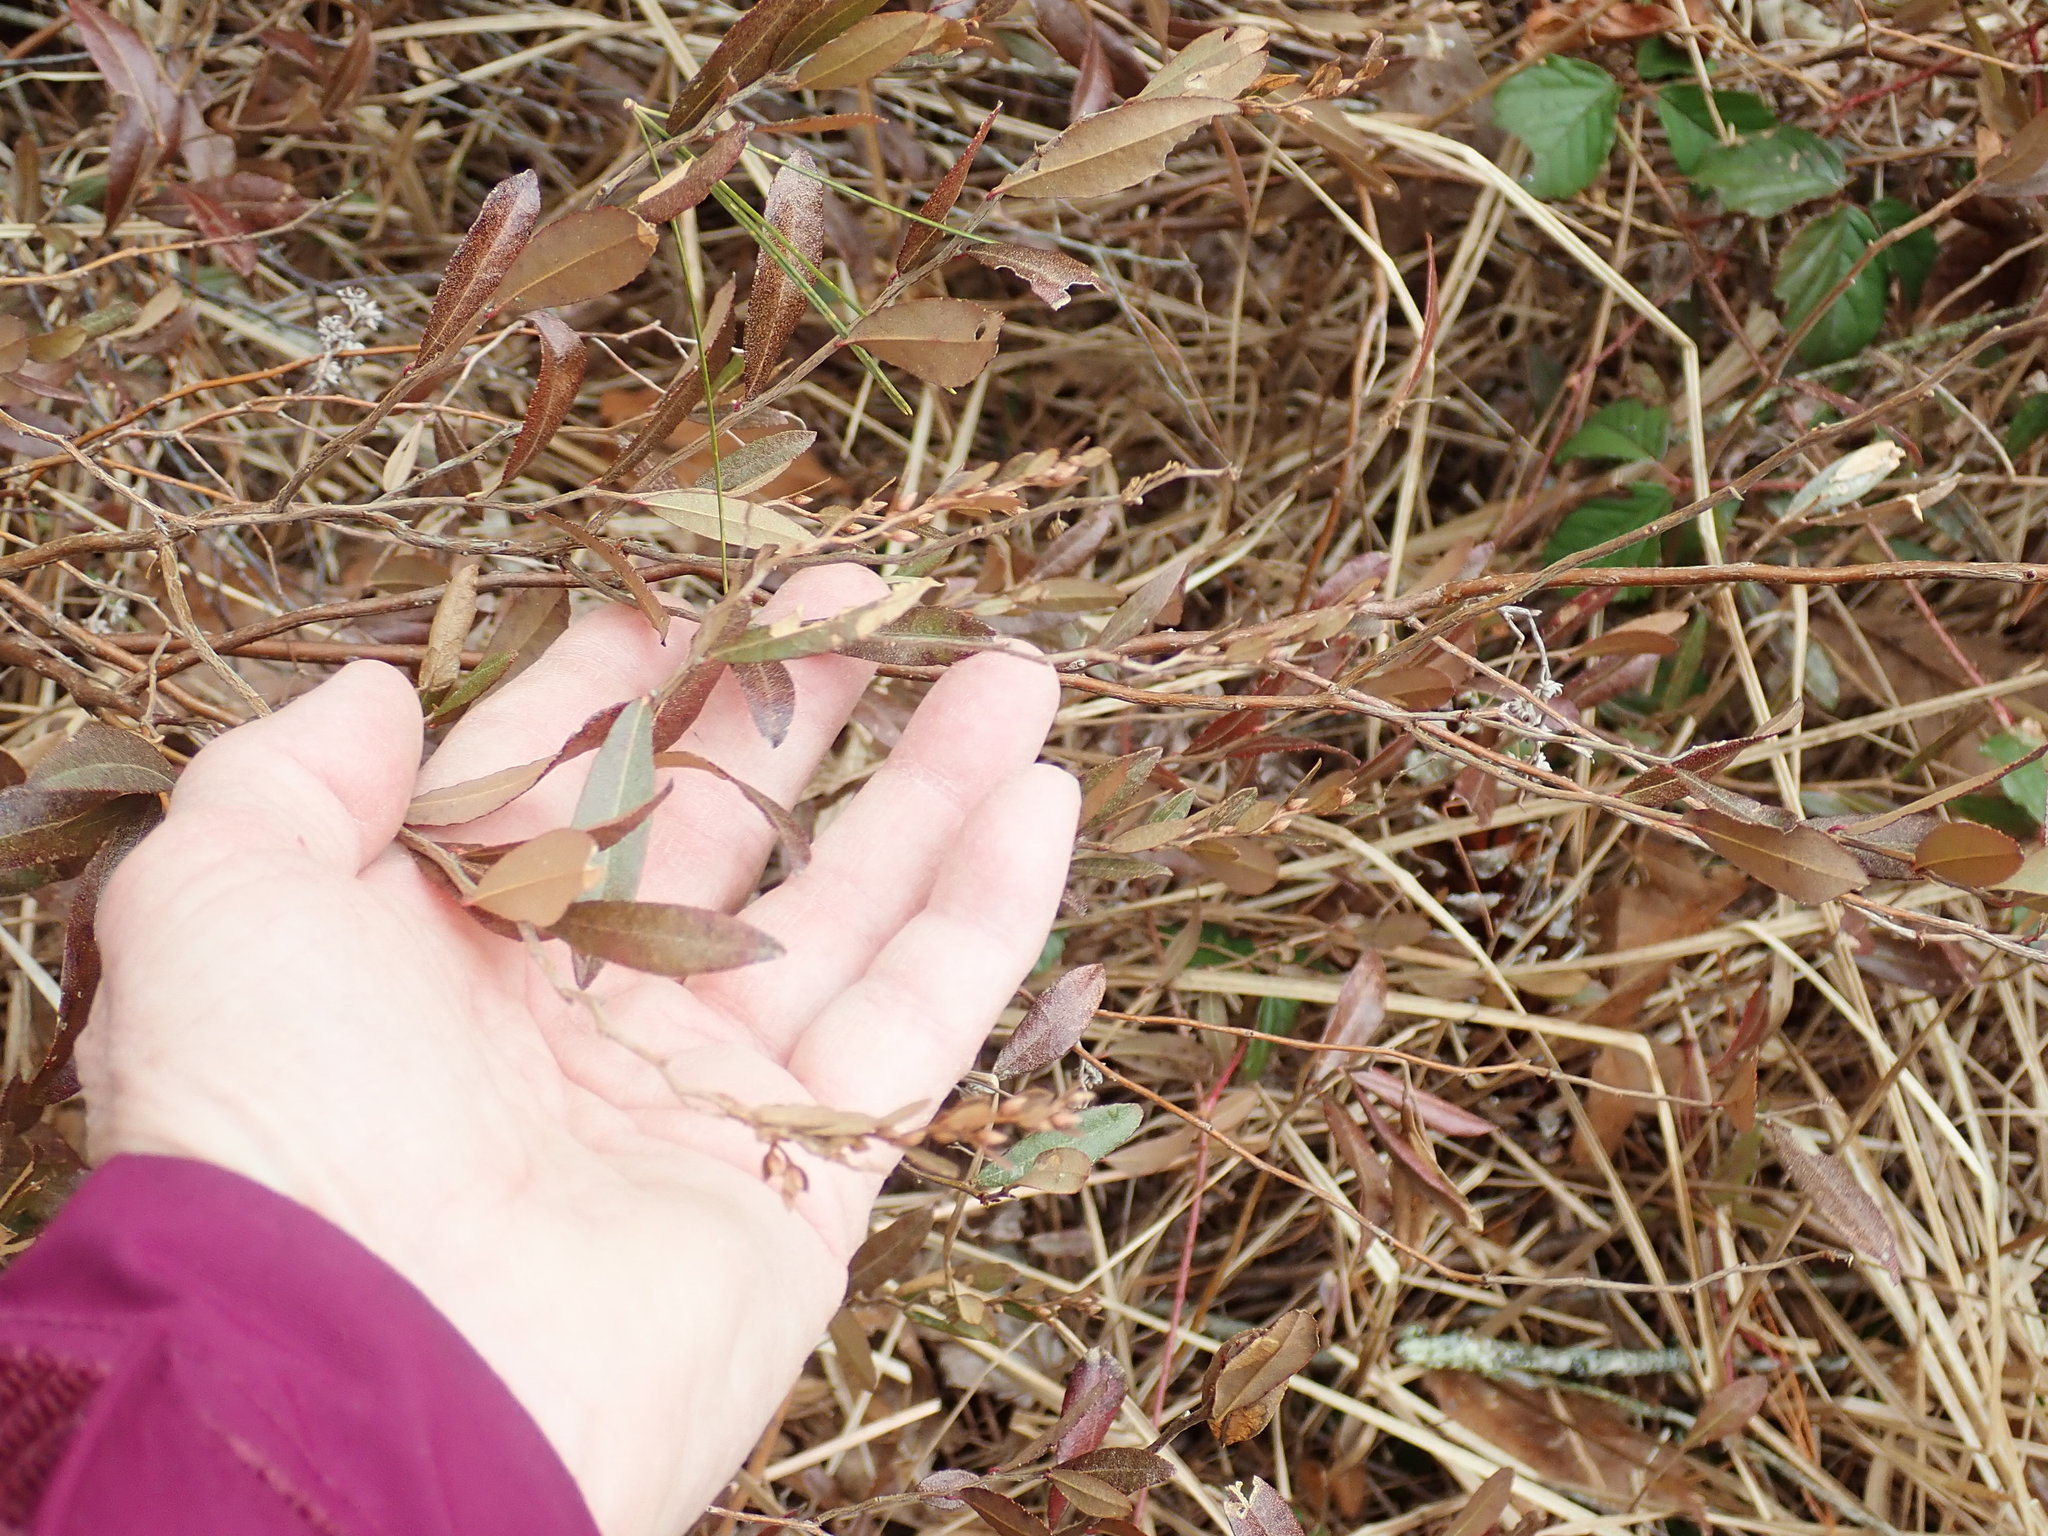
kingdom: Plantae
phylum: Tracheophyta
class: Magnoliopsida
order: Ericales
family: Ericaceae
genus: Chamaedaphne
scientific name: Chamaedaphne calyculata
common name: Leatherleaf
